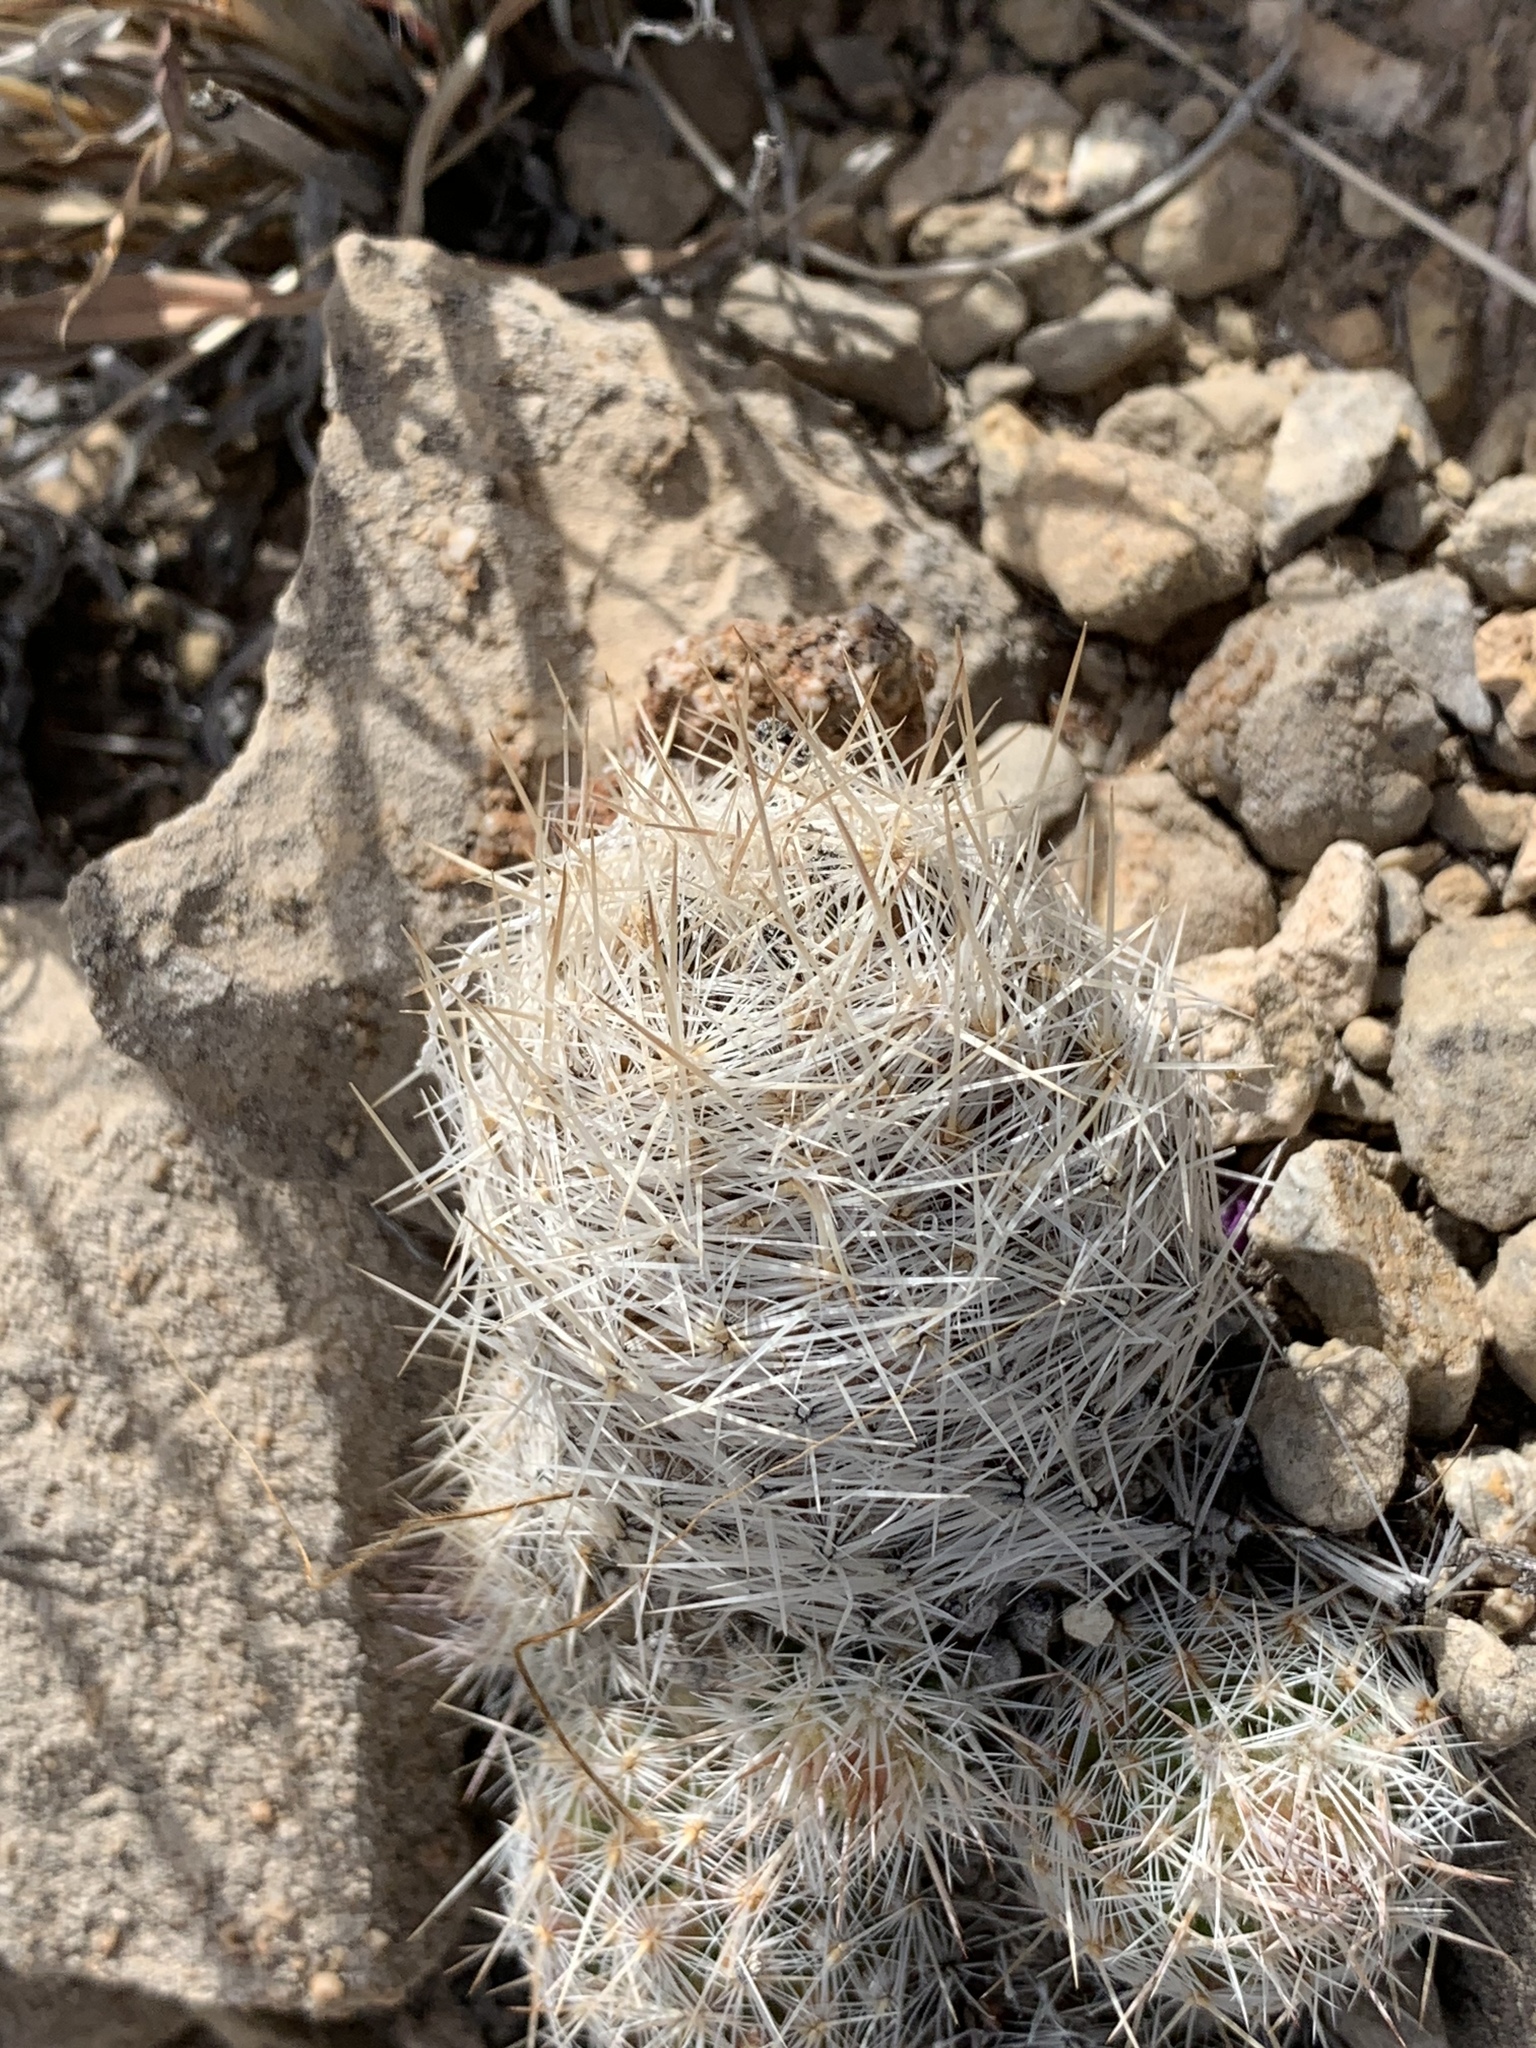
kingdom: Plantae
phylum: Tracheophyta
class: Magnoliopsida
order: Caryophyllales
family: Cactaceae
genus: Pelecyphora
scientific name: Pelecyphora tuberculosa
